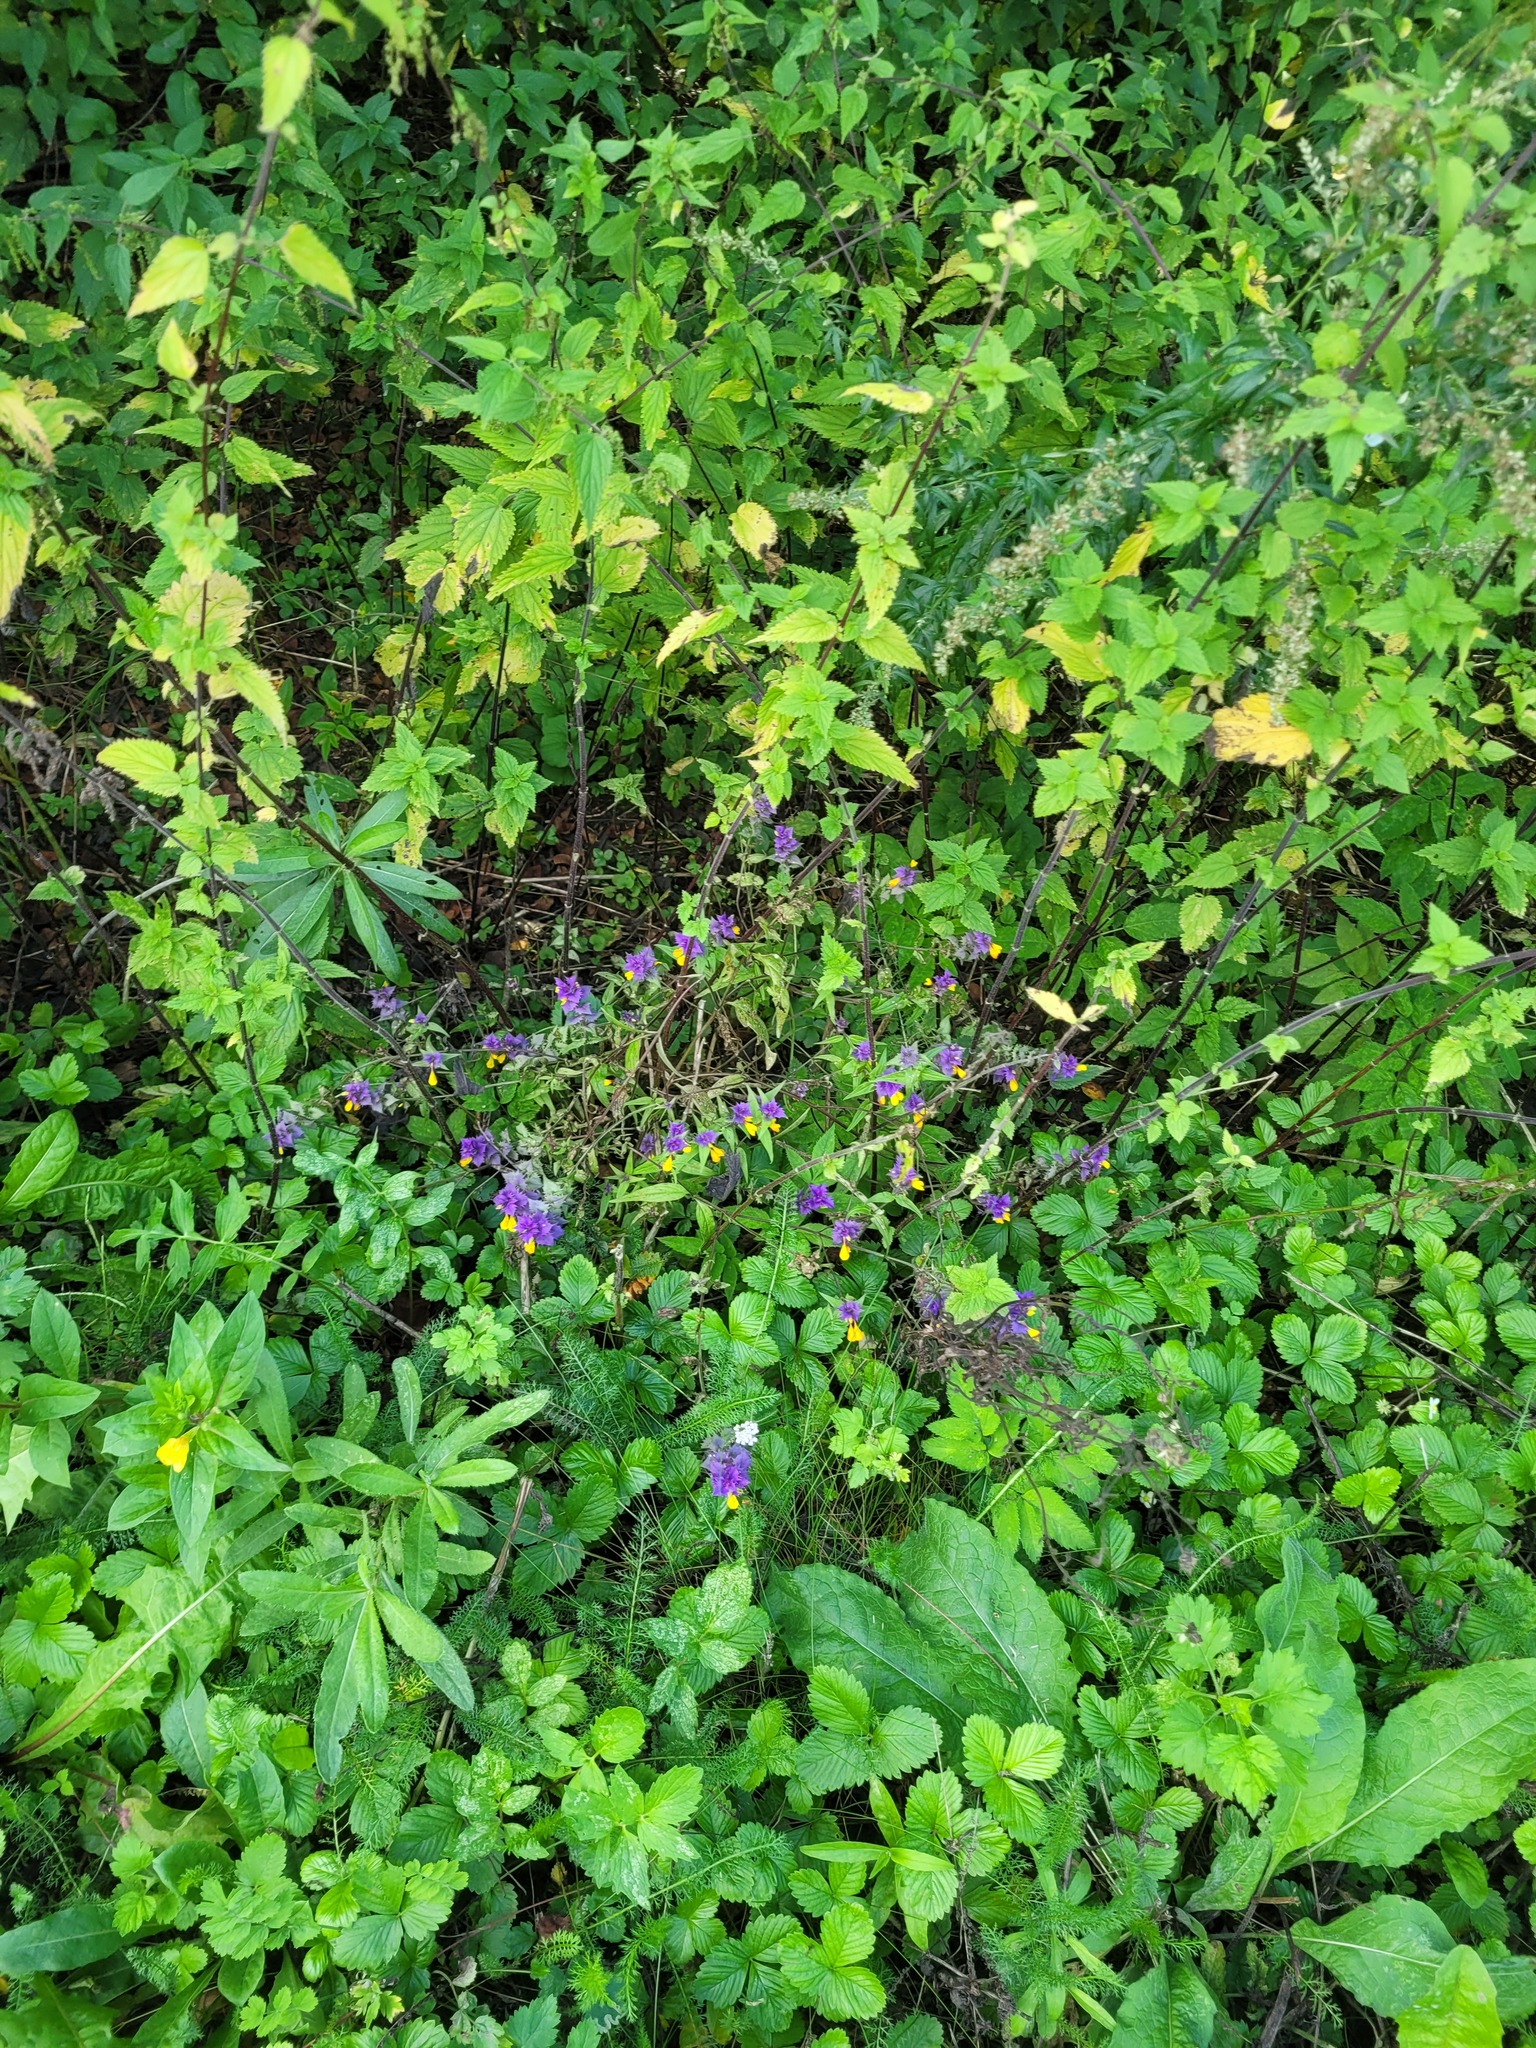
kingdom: Plantae
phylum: Tracheophyta
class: Magnoliopsida
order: Lamiales
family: Orobanchaceae
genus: Melampyrum
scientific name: Melampyrum nemorosum
